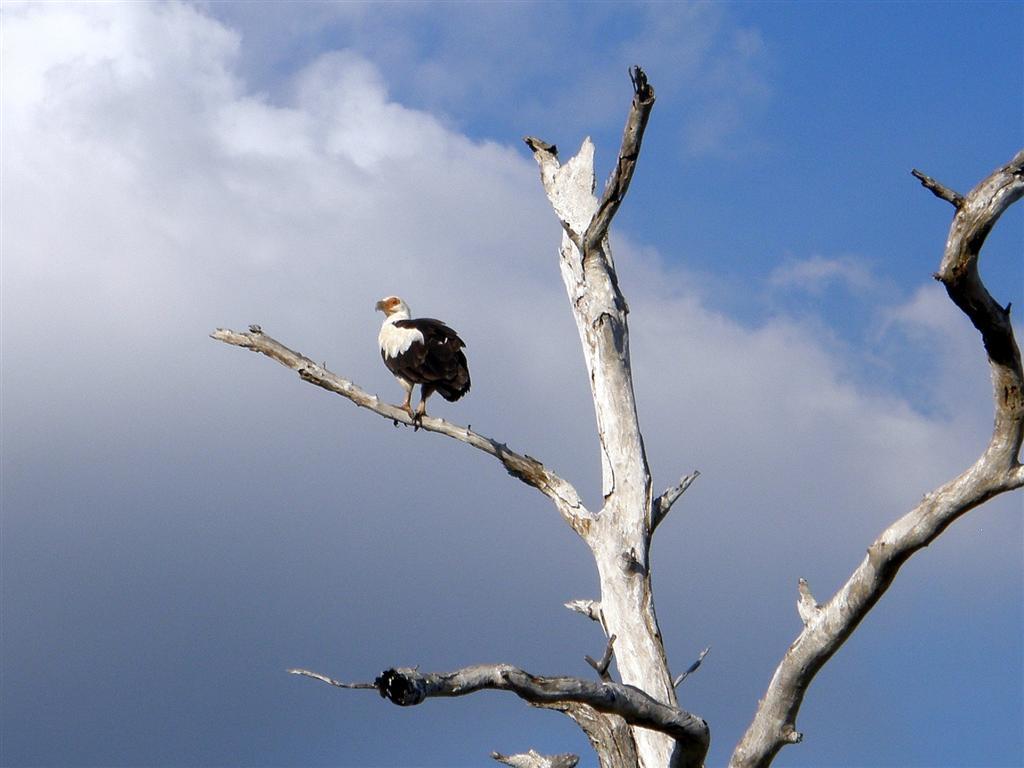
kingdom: Animalia
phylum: Chordata
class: Aves
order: Accipitriformes
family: Accipitridae
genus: Gypohierax
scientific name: Gypohierax angolensis
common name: Palm-nut vulture
